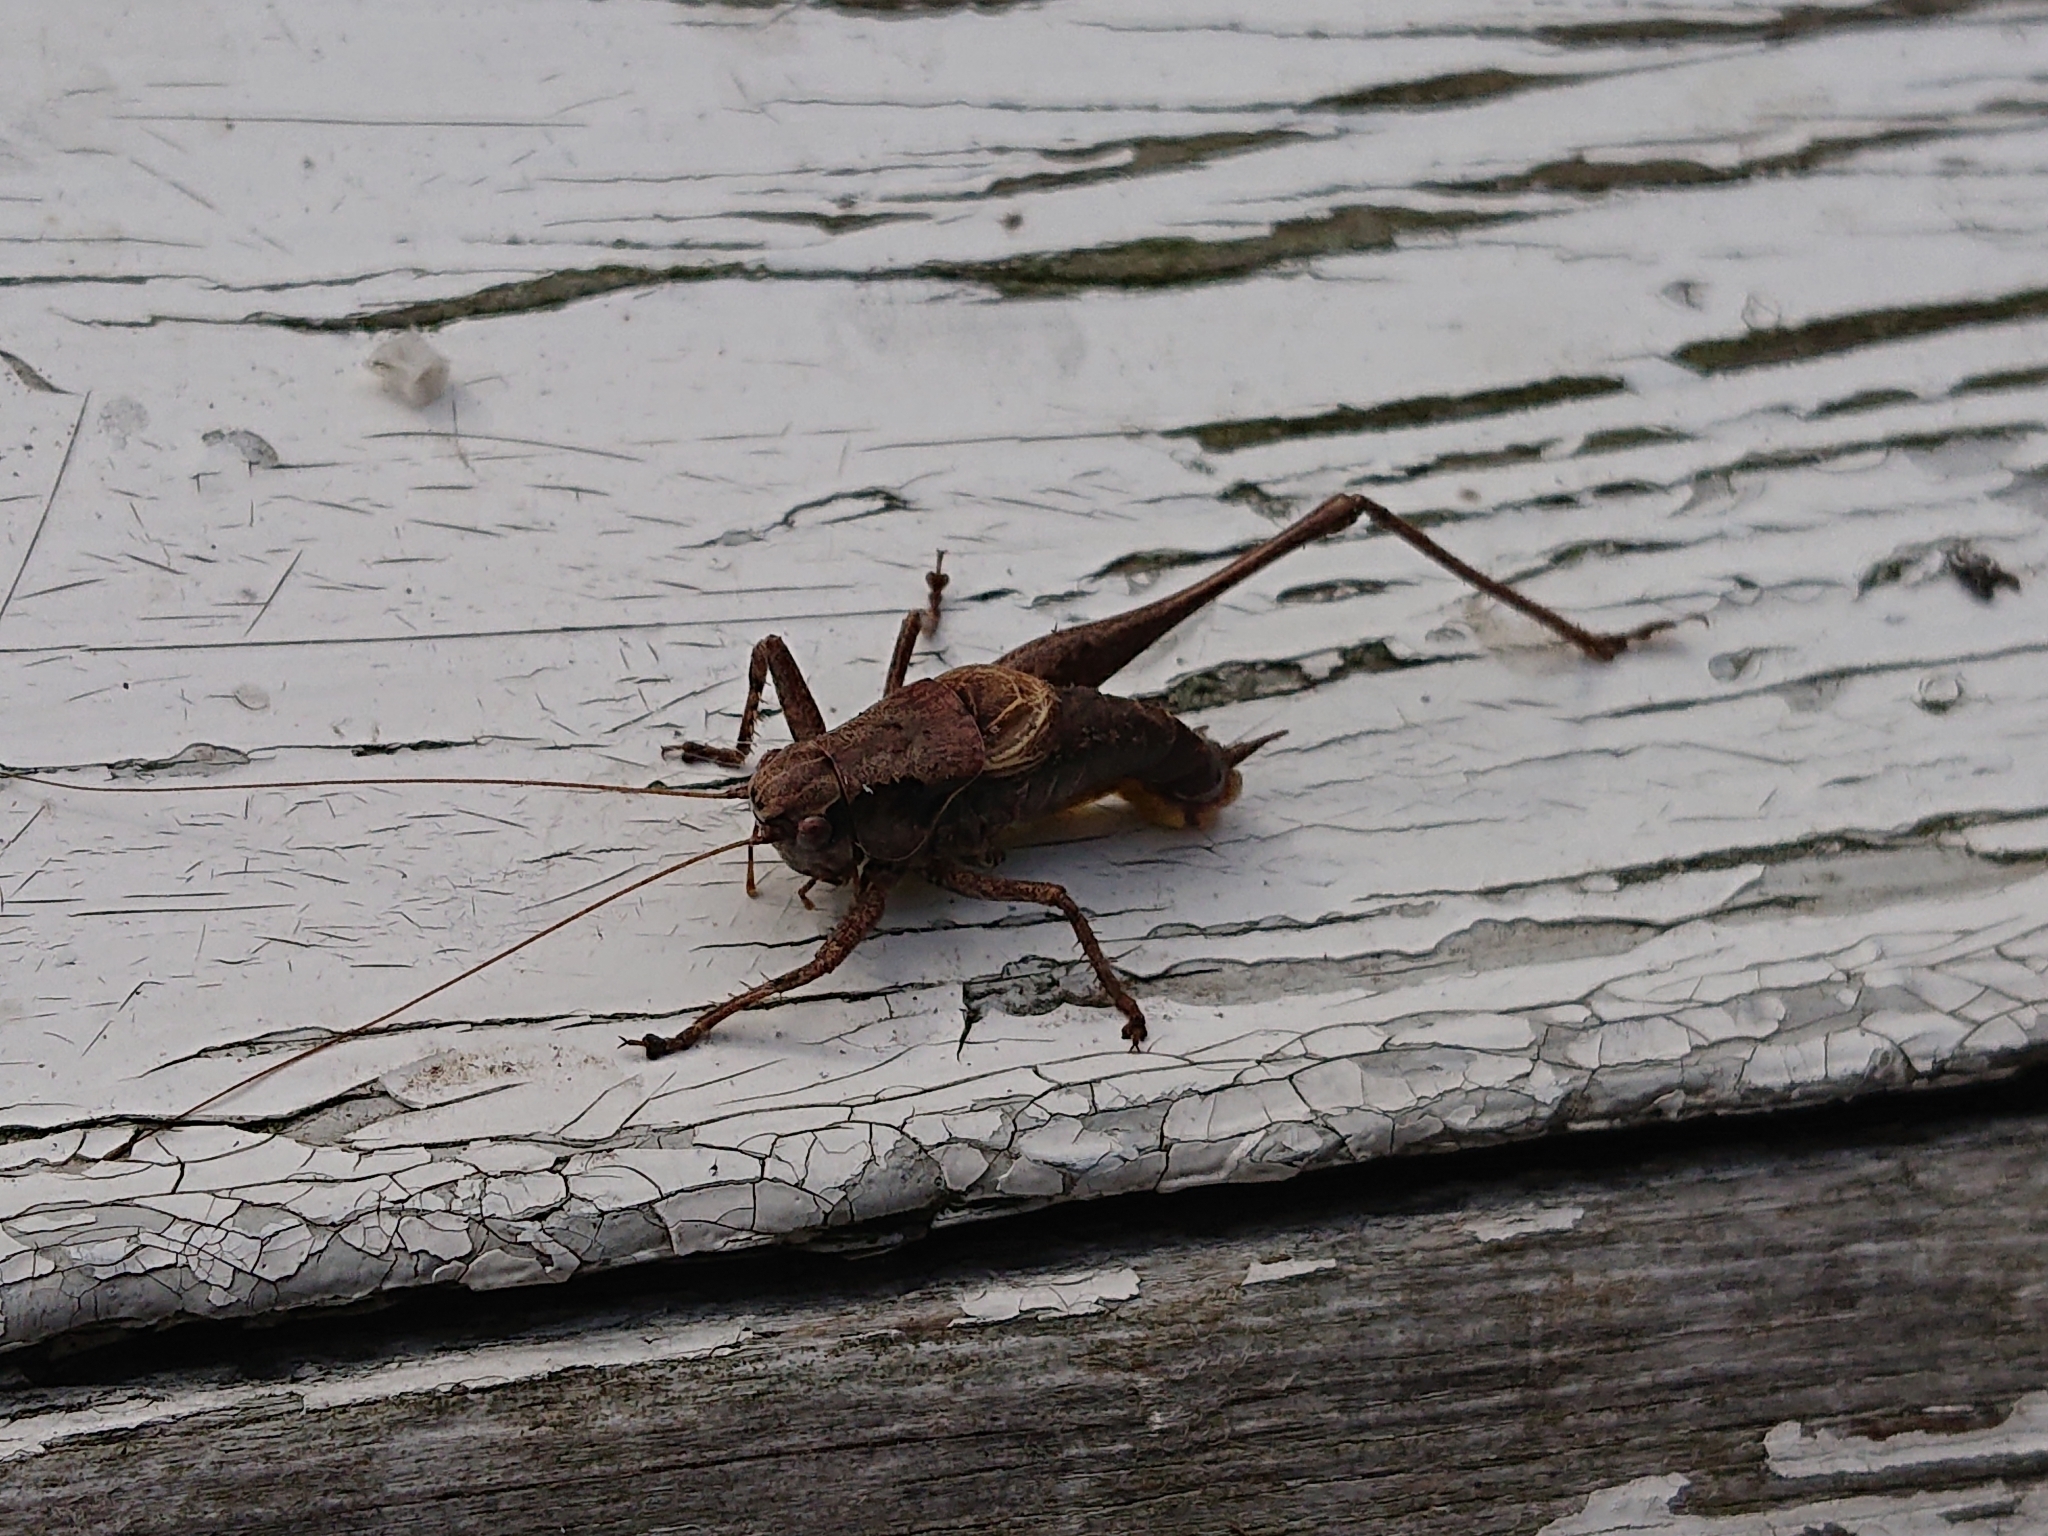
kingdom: Animalia
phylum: Arthropoda
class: Insecta
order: Orthoptera
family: Tettigoniidae
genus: Pholidoptera
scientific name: Pholidoptera griseoaptera
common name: Dark bush-cricket
